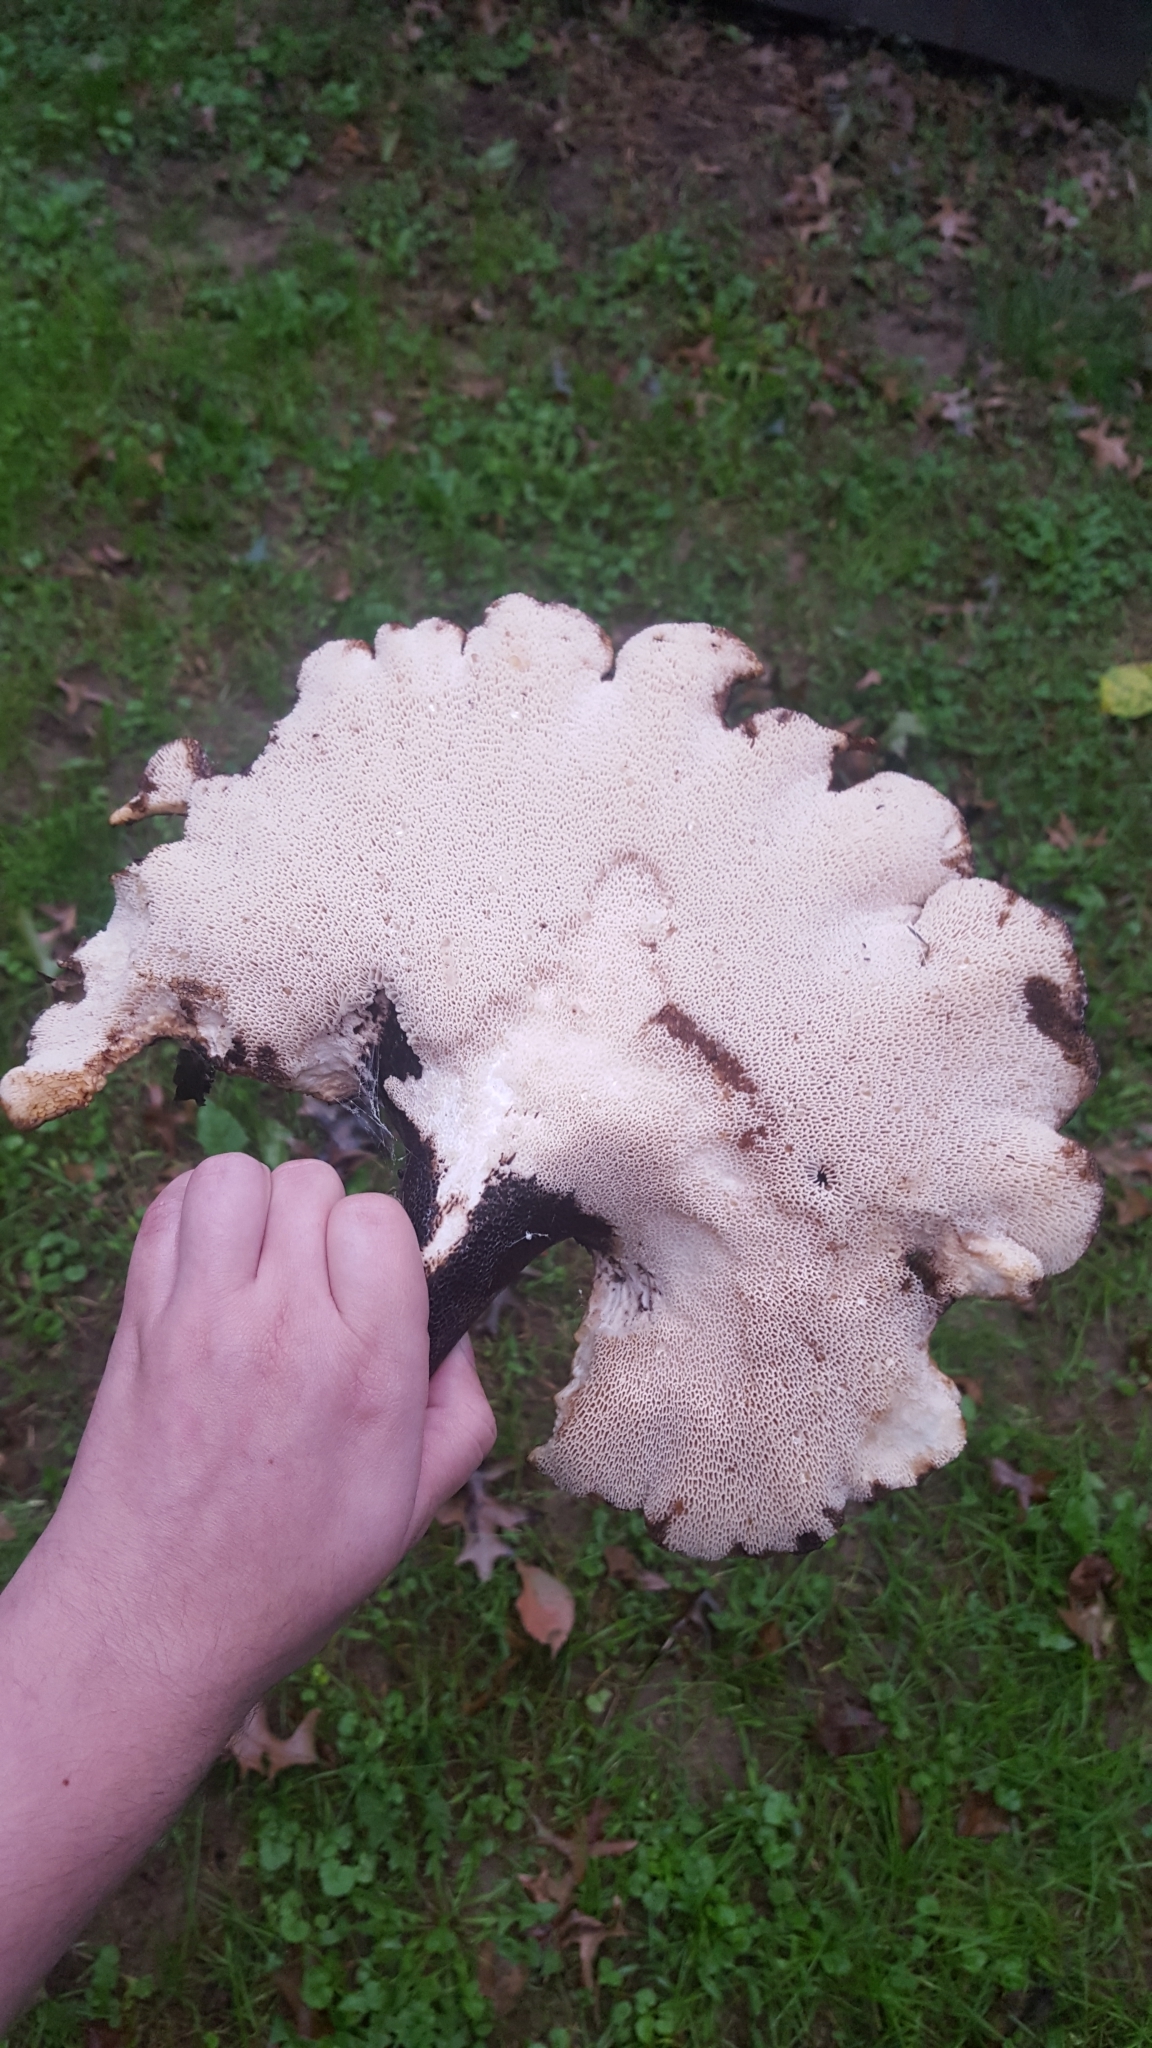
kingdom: Fungi
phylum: Basidiomycota
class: Agaricomycetes
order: Polyporales
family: Polyporaceae
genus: Cerioporus
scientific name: Cerioporus squamosus
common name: Dryad's saddle
